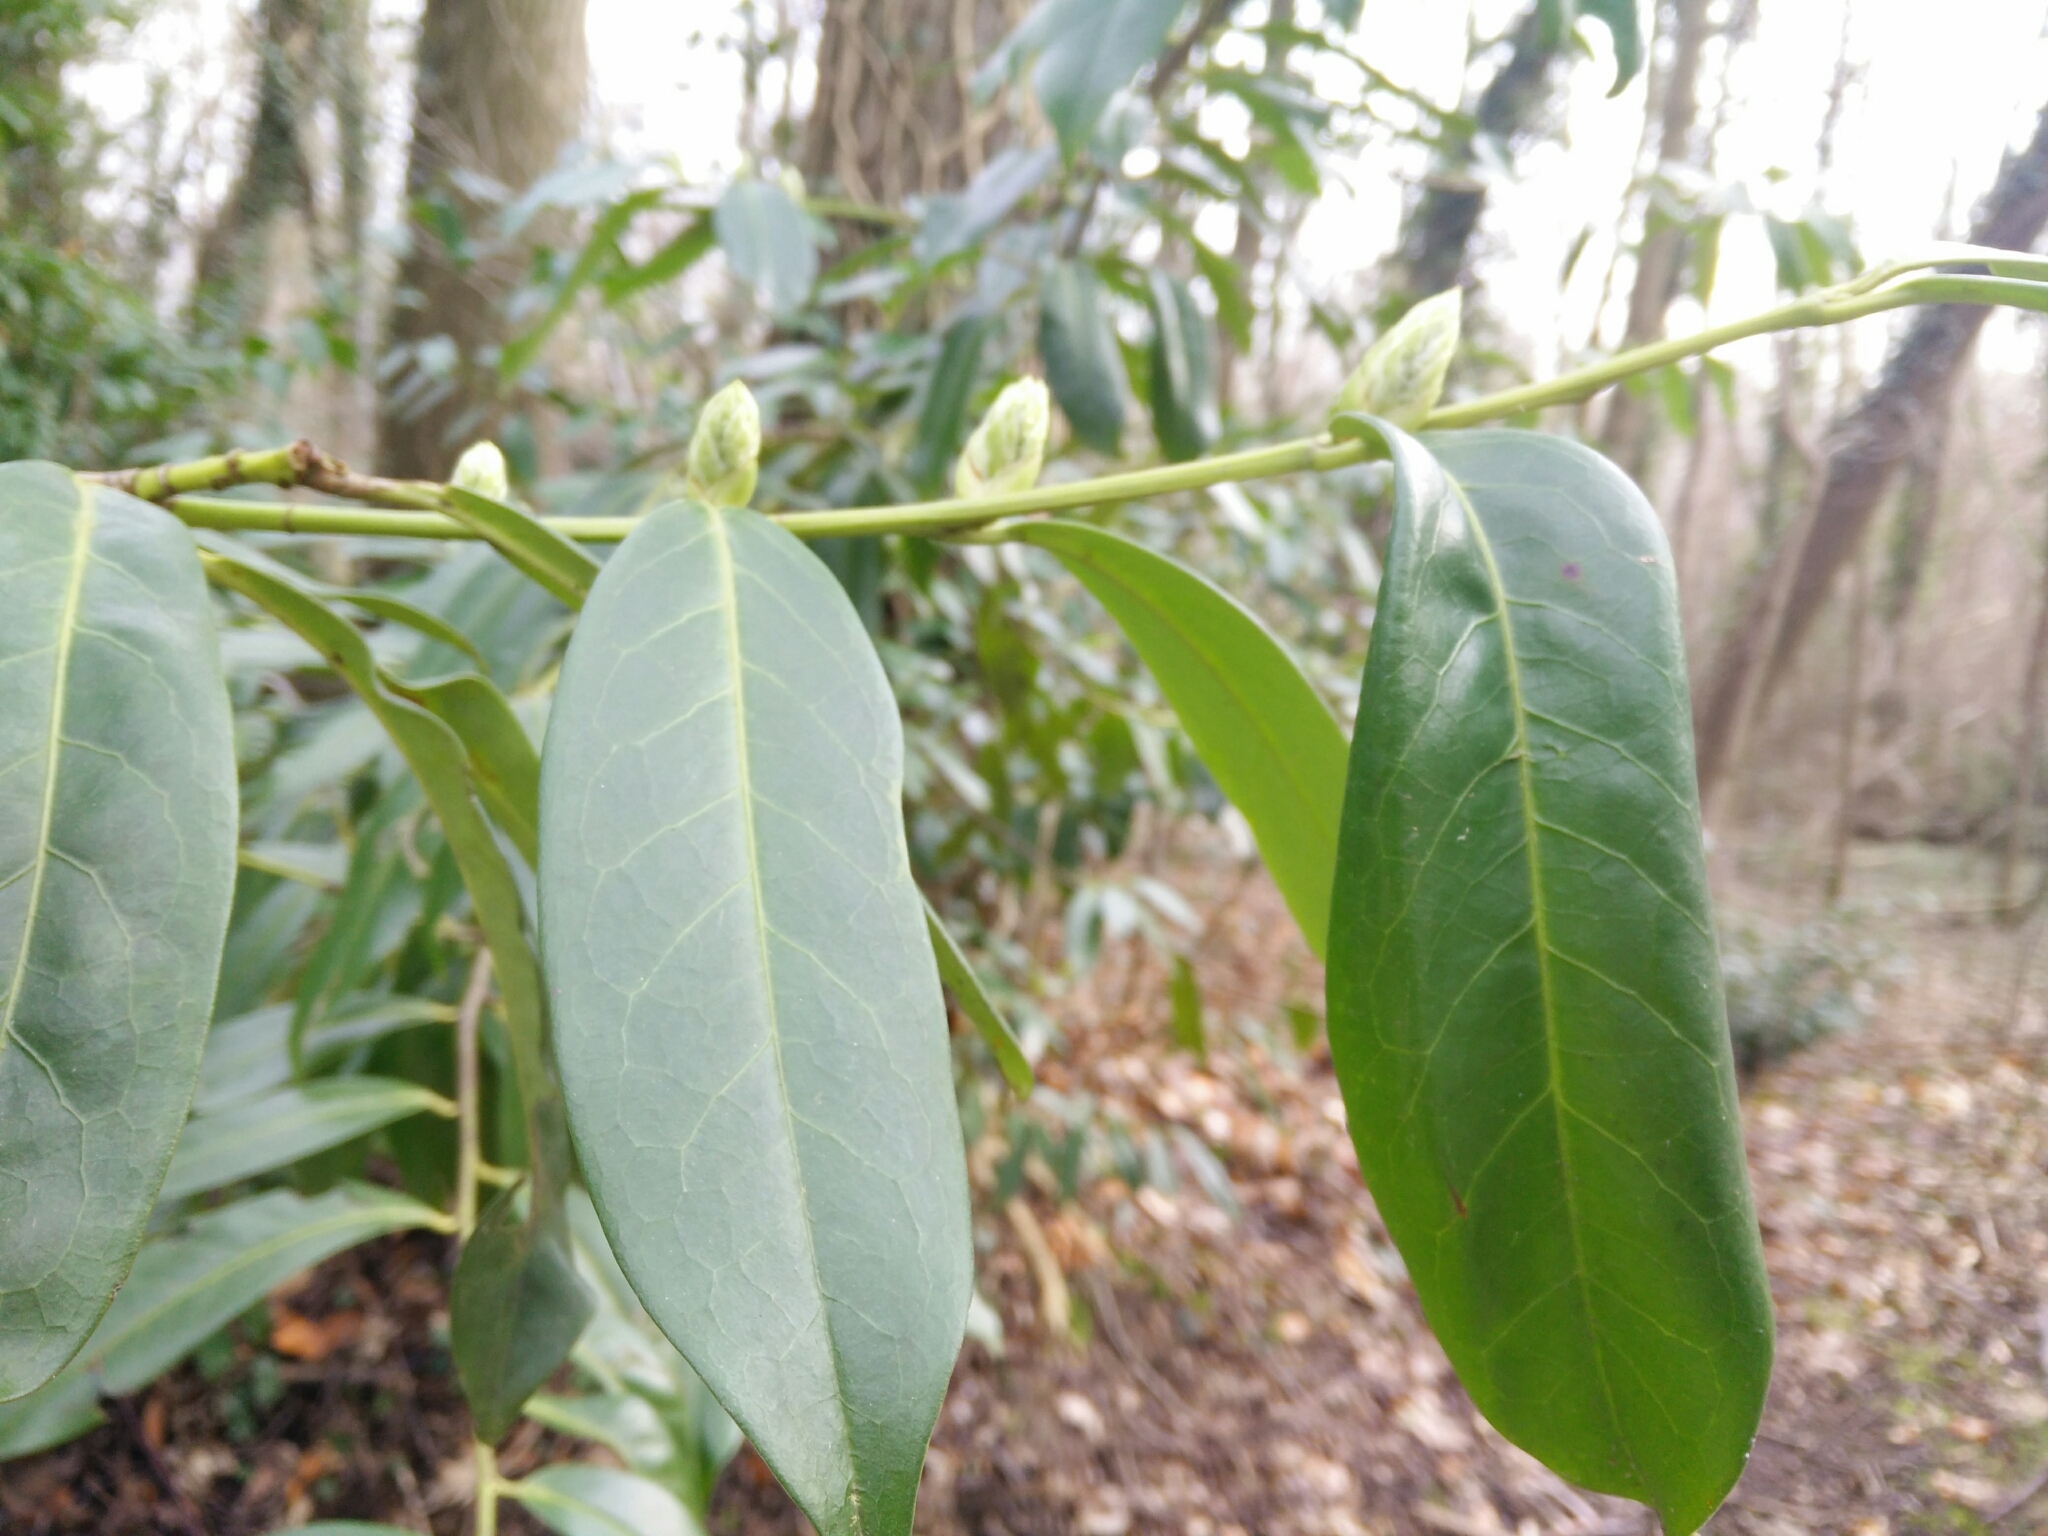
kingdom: Plantae
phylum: Tracheophyta
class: Magnoliopsida
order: Rosales
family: Rosaceae
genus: Prunus
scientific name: Prunus laurocerasus
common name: Cherry laurel
